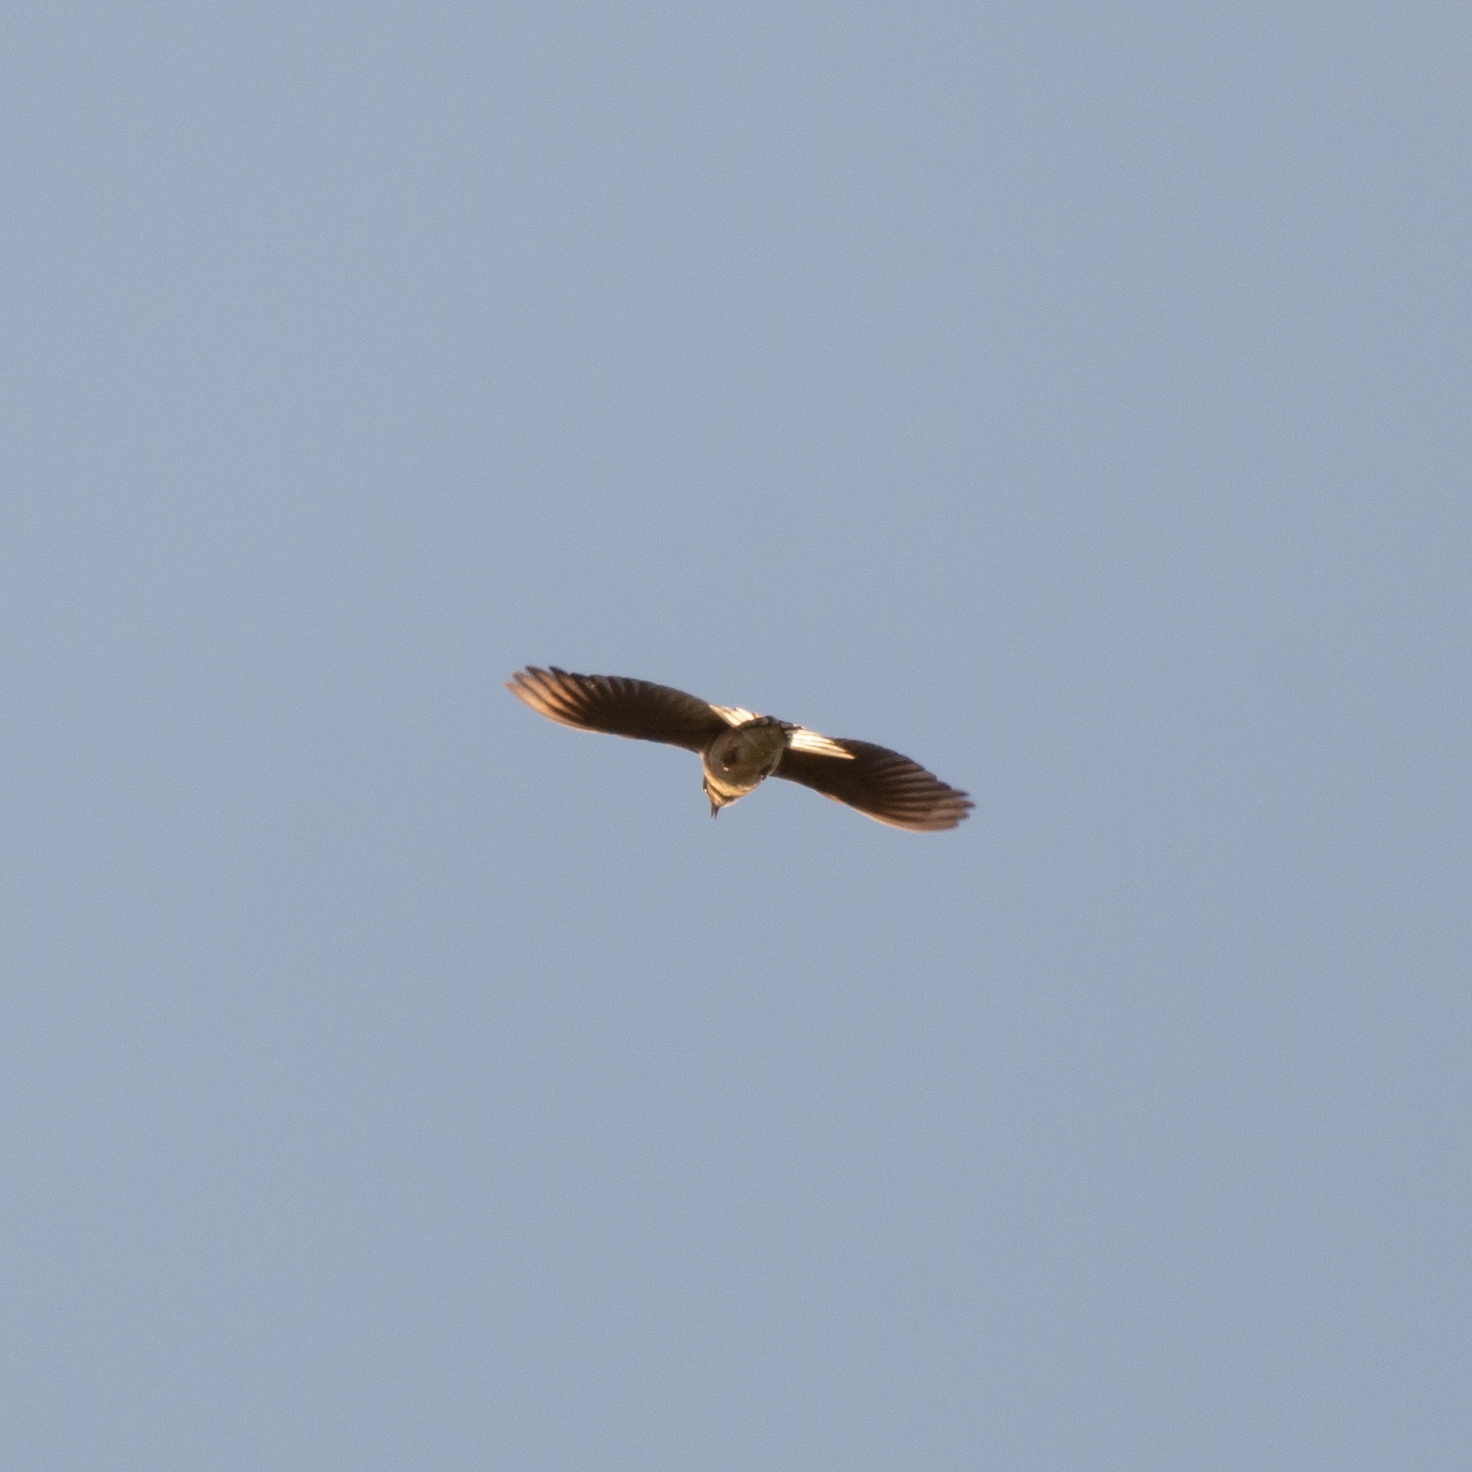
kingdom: Animalia
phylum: Chordata
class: Aves
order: Passeriformes
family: Alaudidae
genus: Alauda
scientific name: Alauda arvensis
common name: Eurasian skylark
